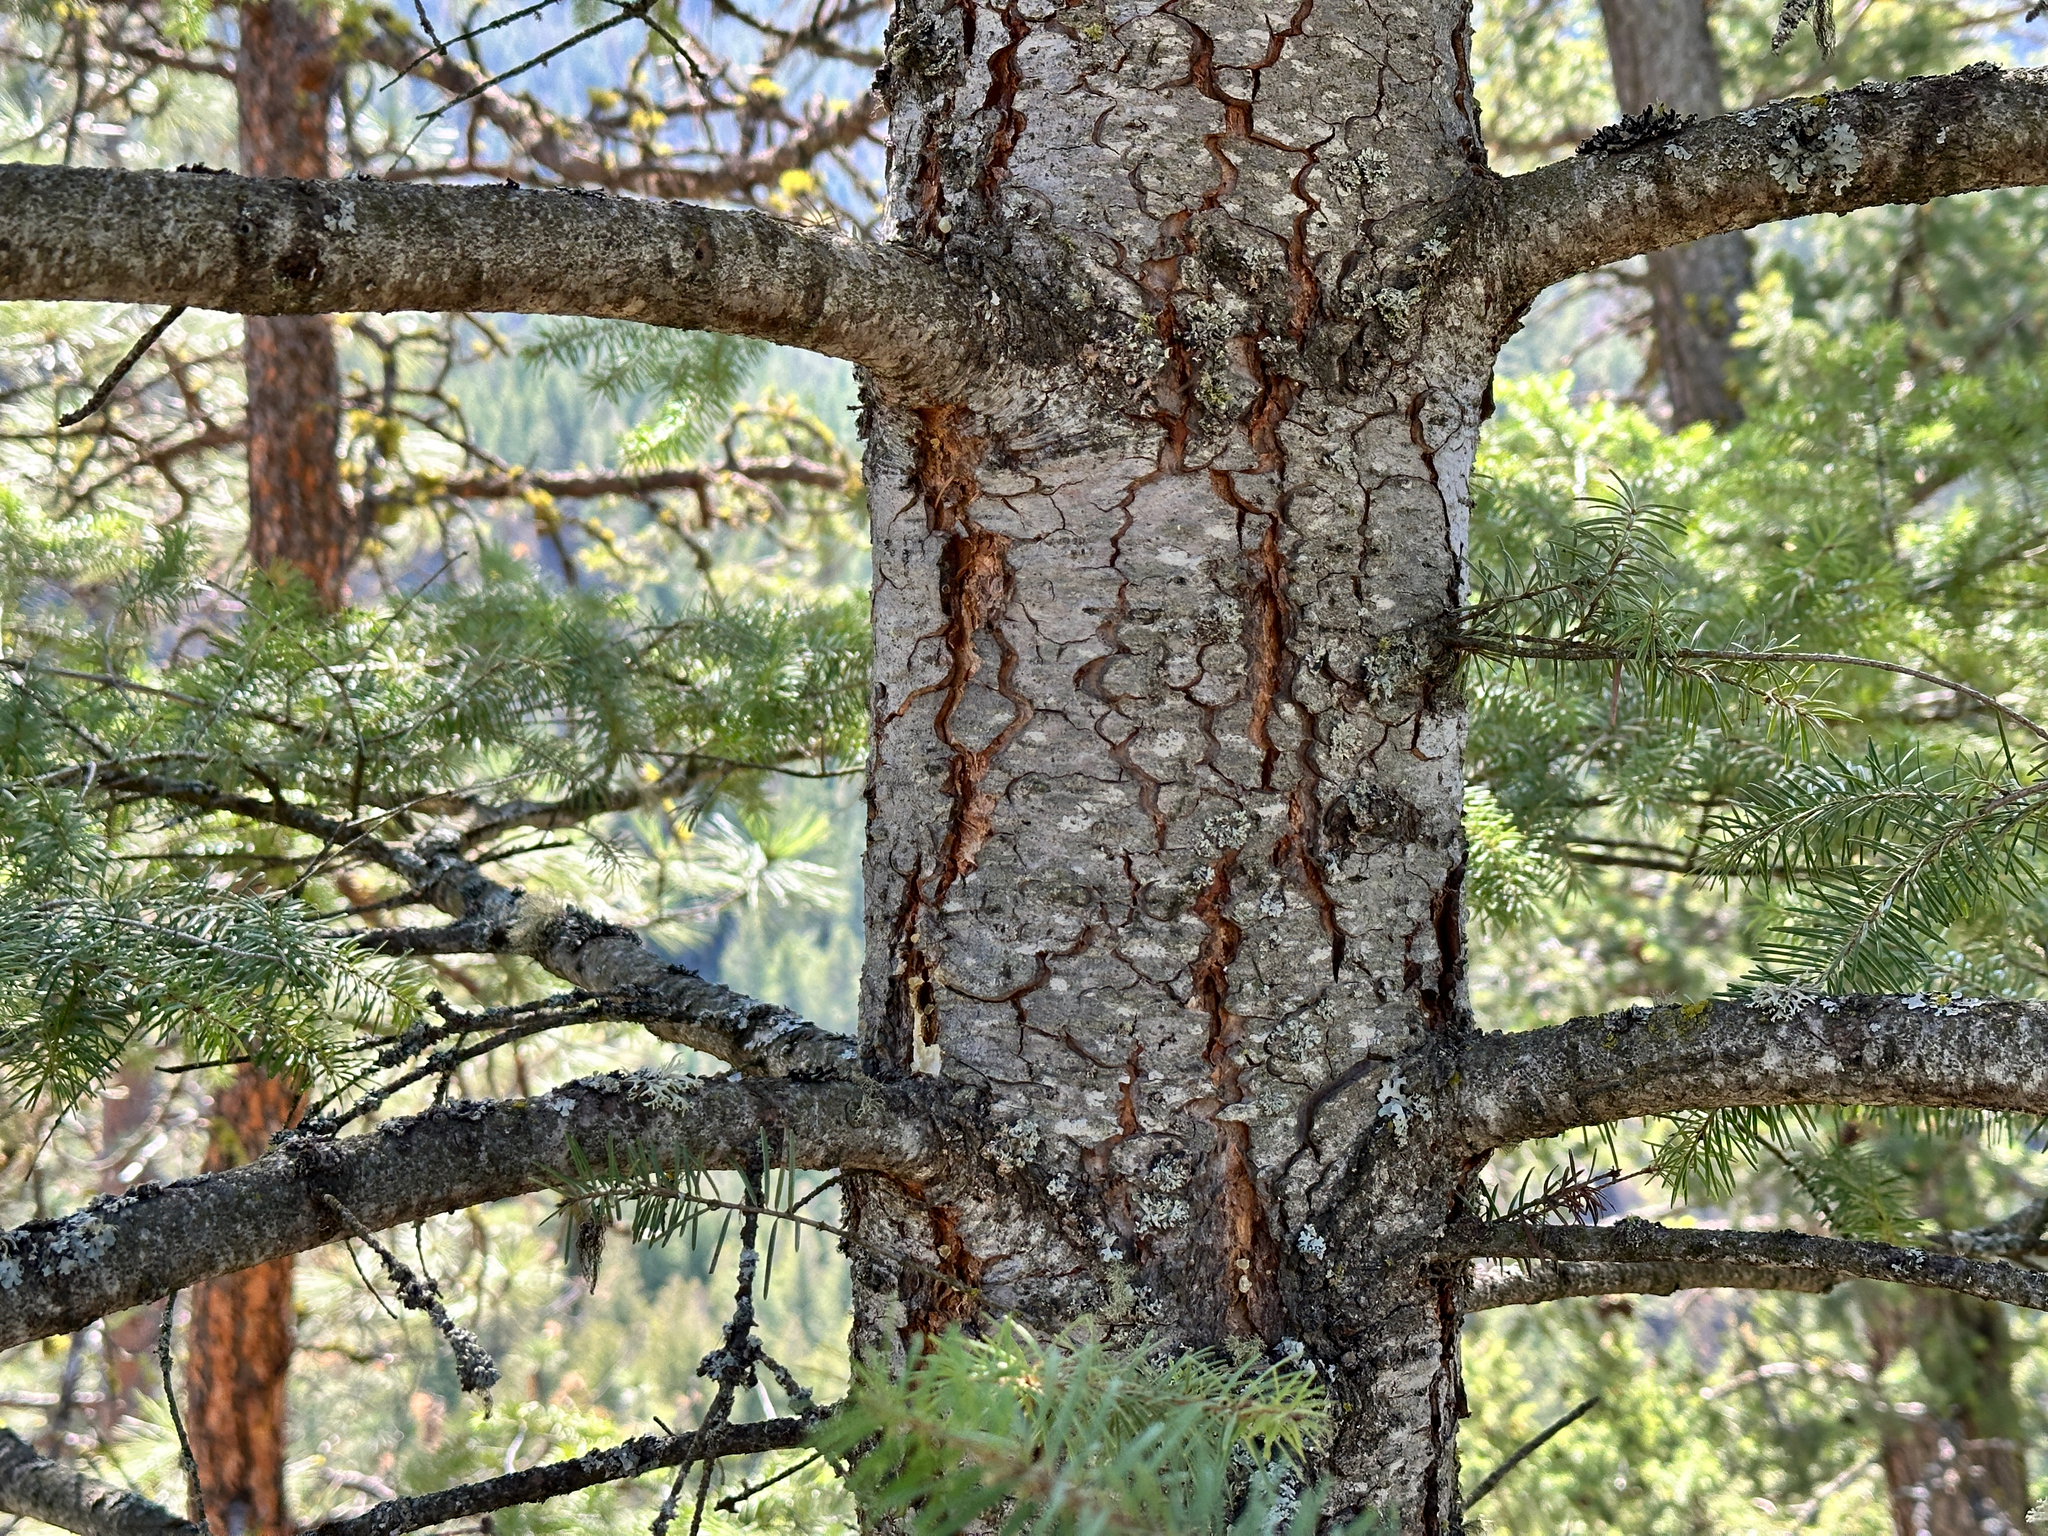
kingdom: Plantae
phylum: Tracheophyta
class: Pinopsida
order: Pinales
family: Pinaceae
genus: Pseudotsuga
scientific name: Pseudotsuga menziesii
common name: Douglas fir
